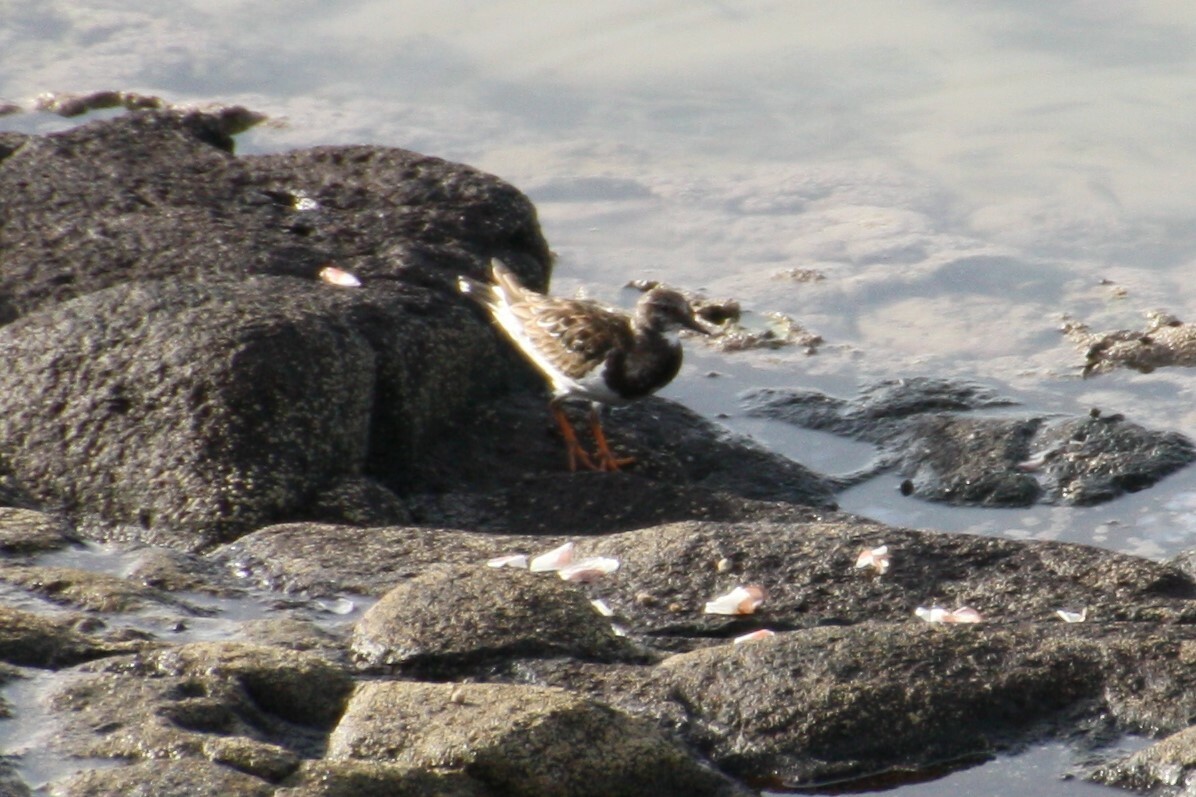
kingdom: Animalia
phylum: Chordata
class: Aves
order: Charadriiformes
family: Scolopacidae
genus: Arenaria
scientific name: Arenaria interpres
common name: Ruddy turnstone
